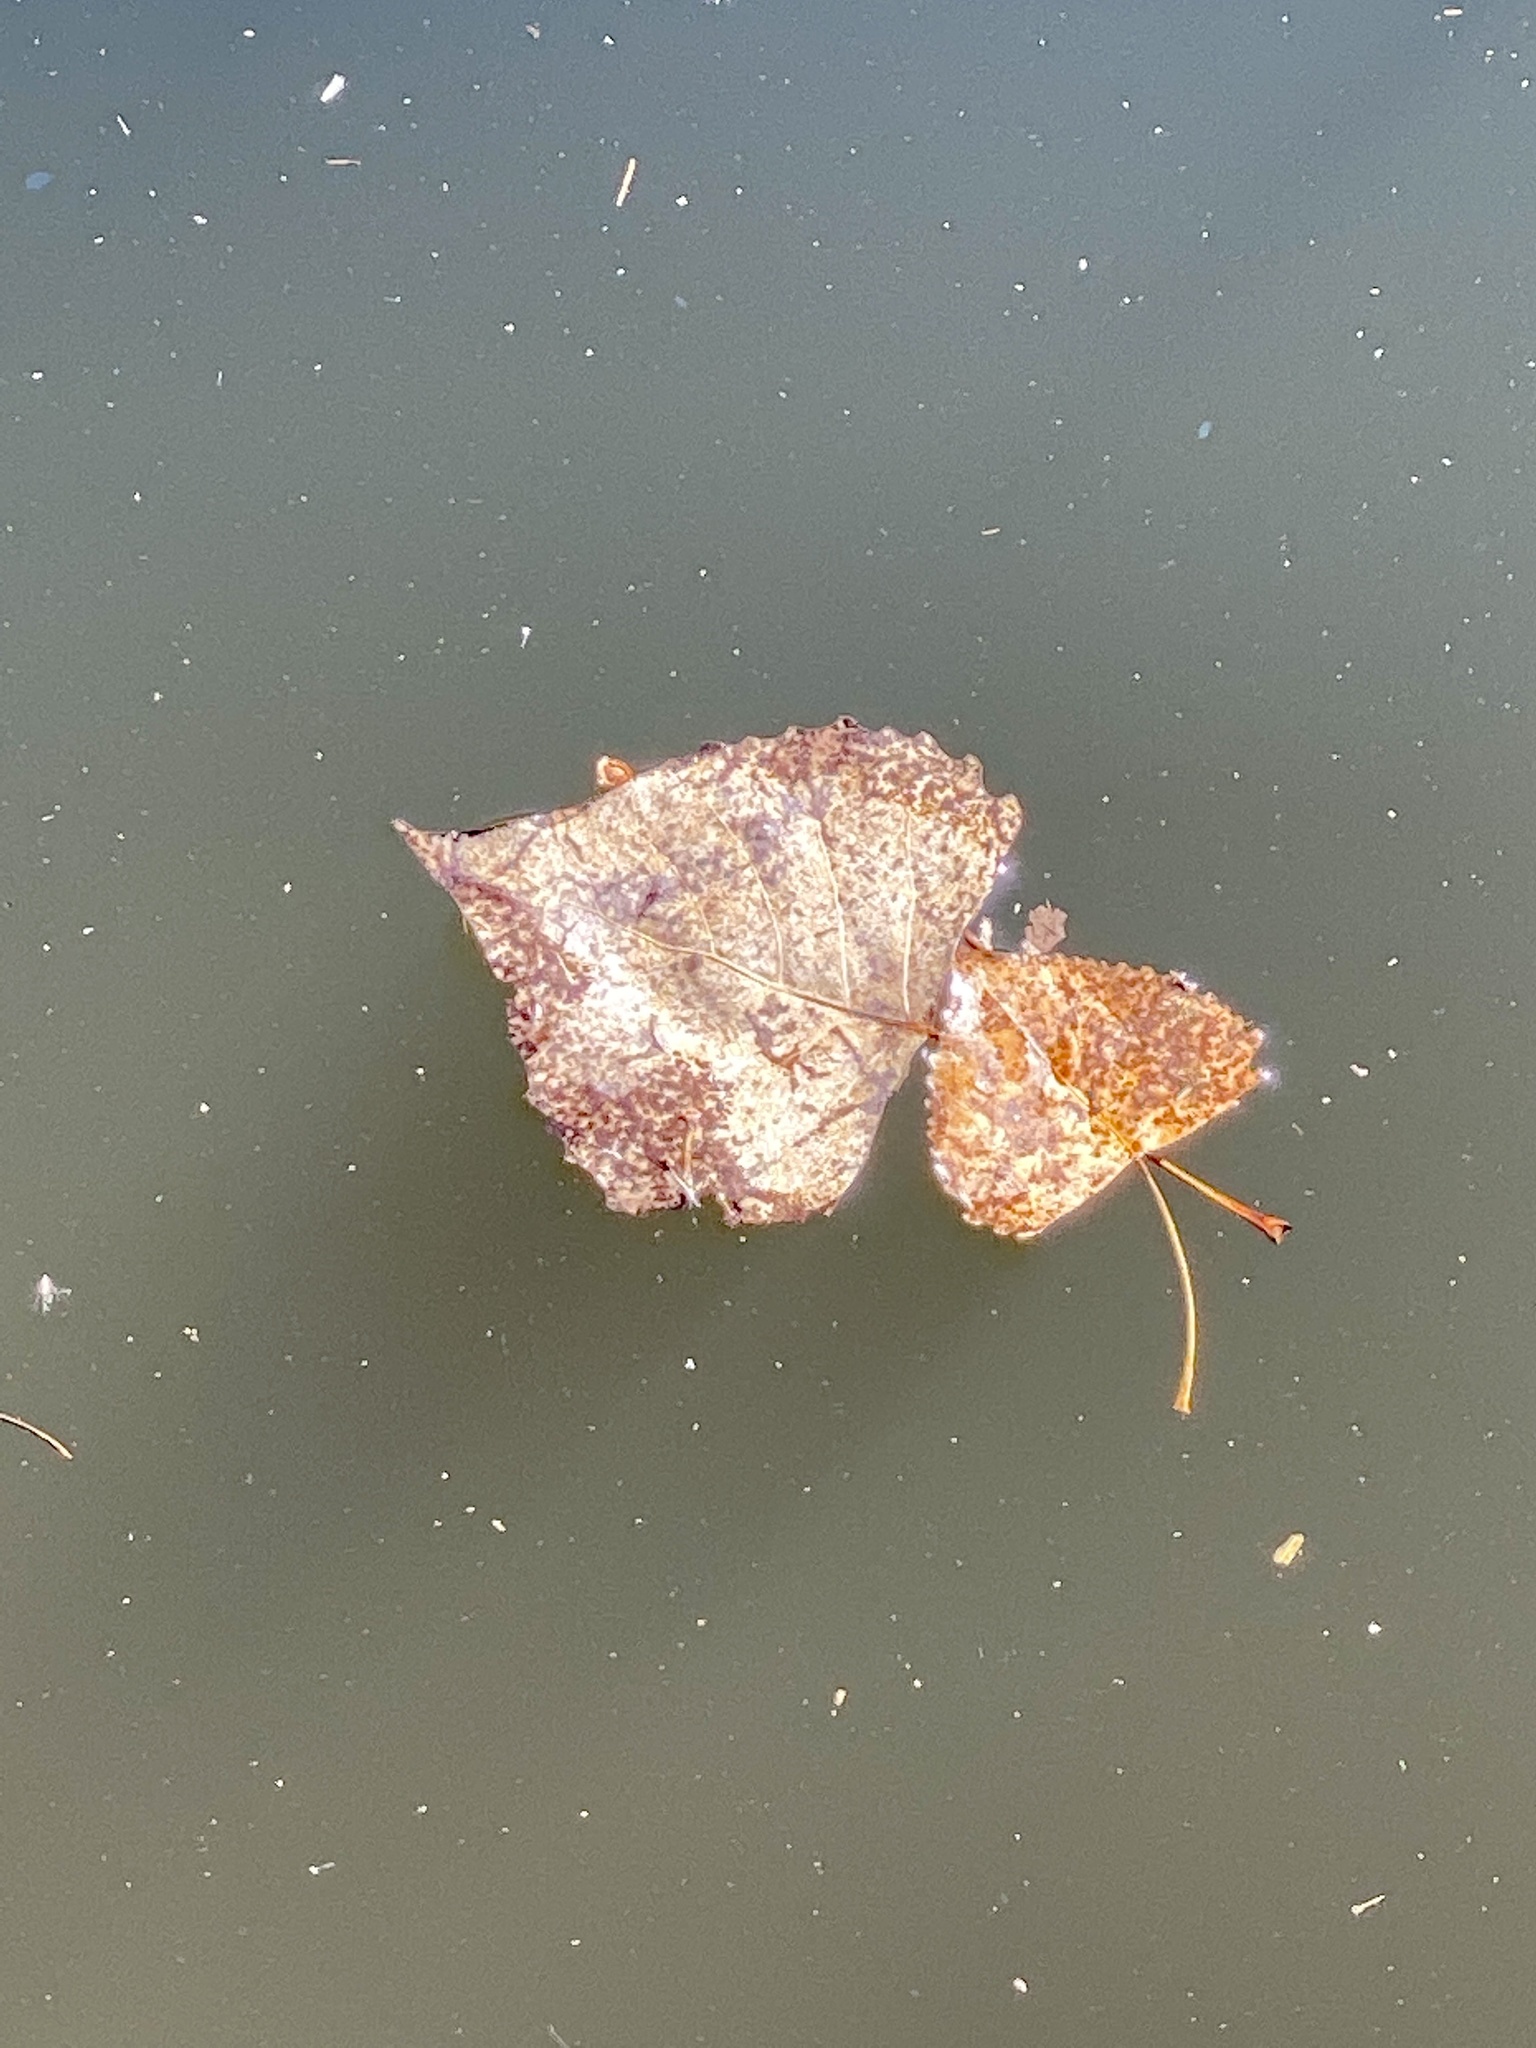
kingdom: Plantae
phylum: Tracheophyta
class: Magnoliopsida
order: Malpighiales
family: Salicaceae
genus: Populus
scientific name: Populus deltoides
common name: Eastern cottonwood
